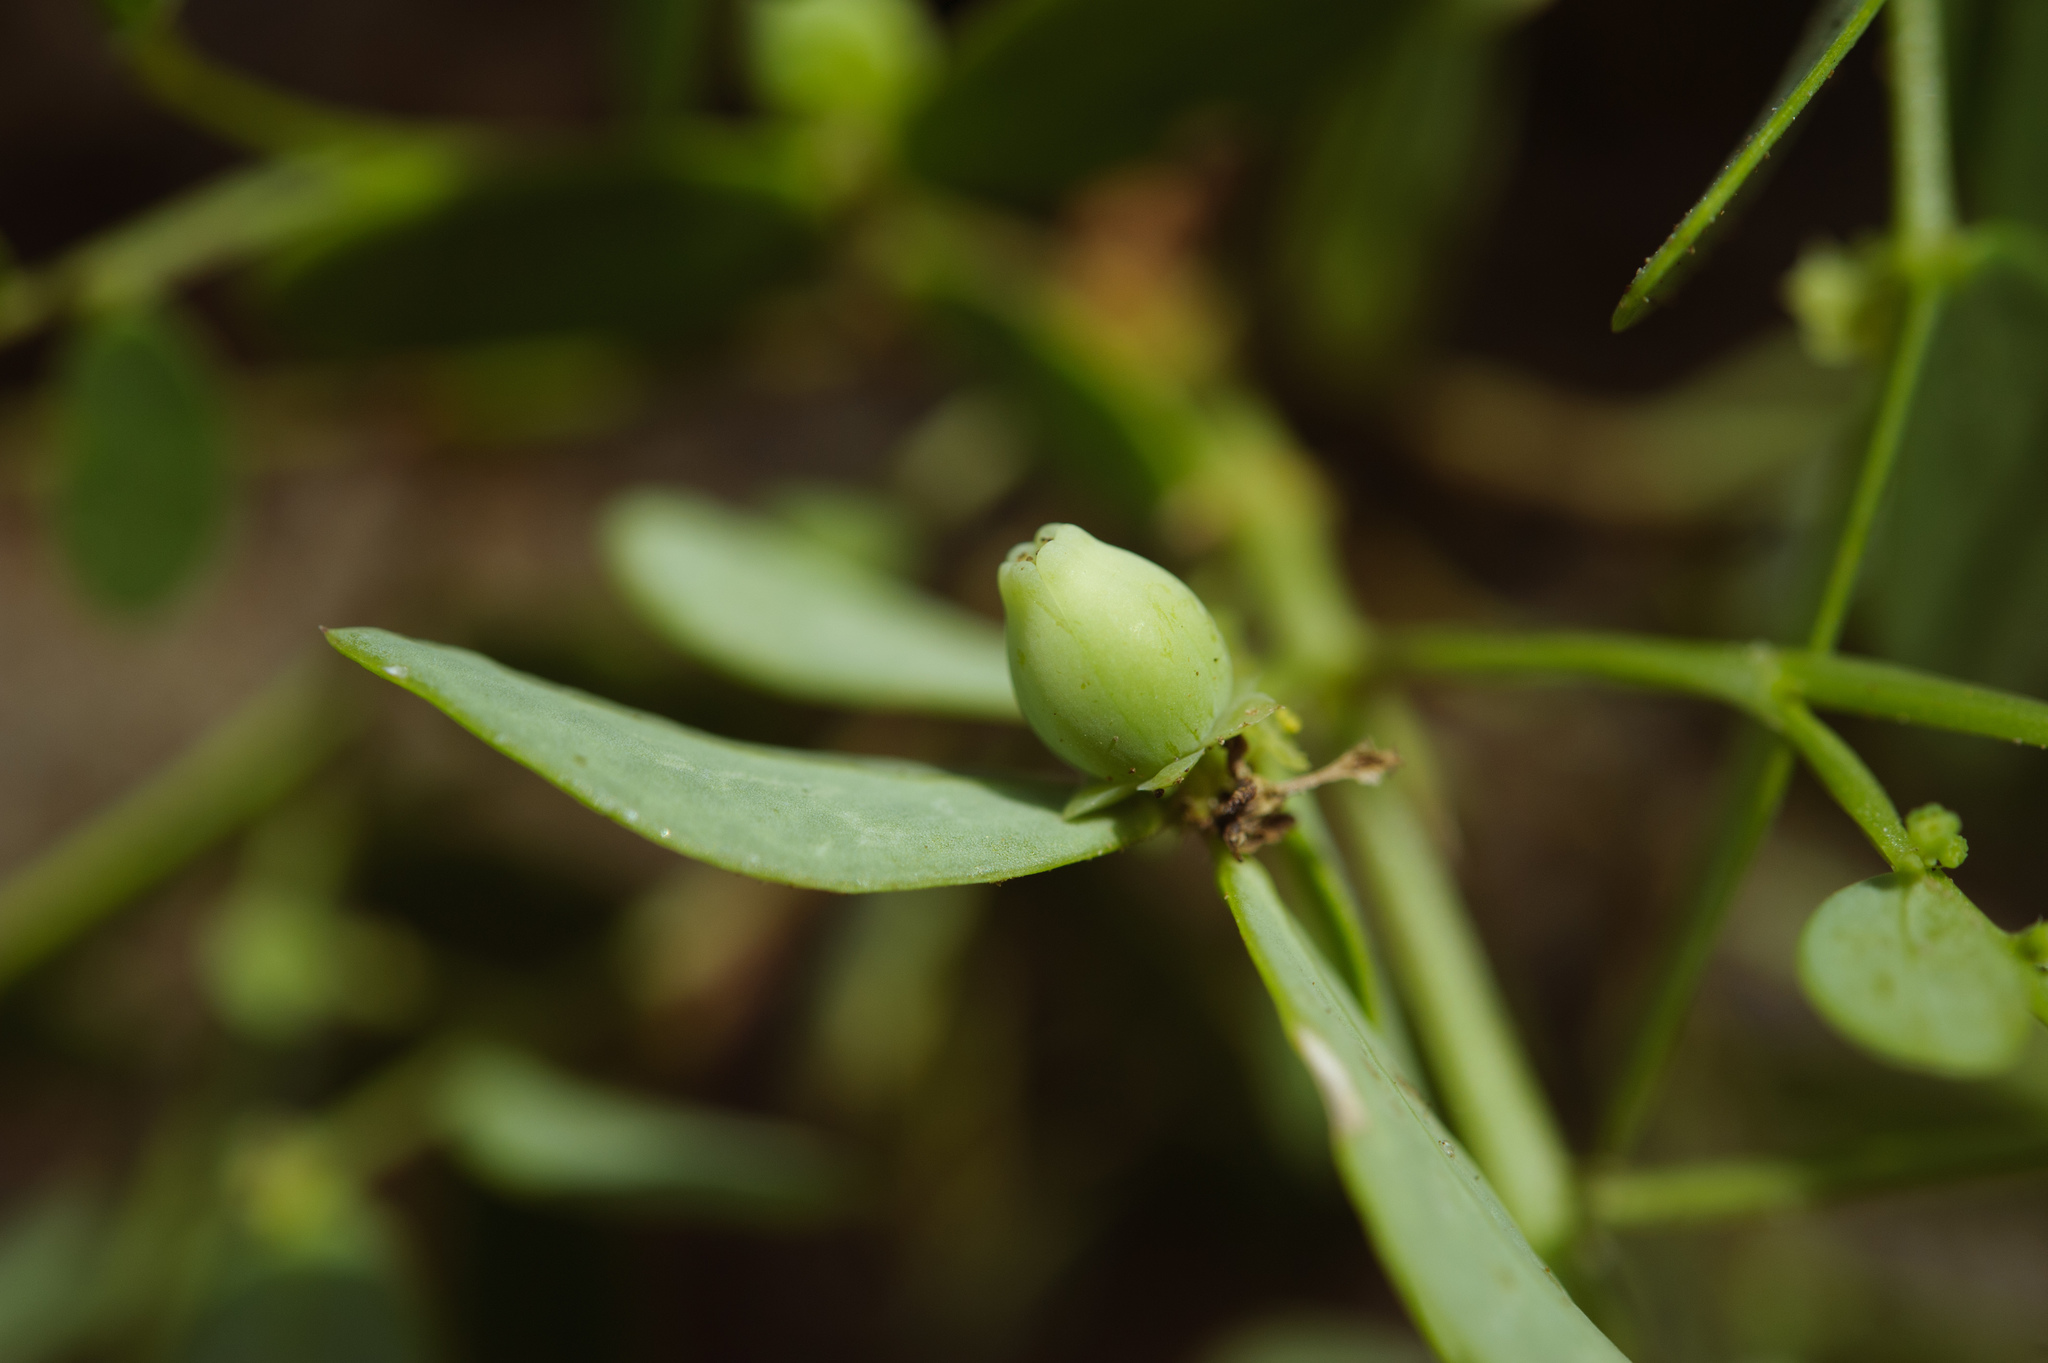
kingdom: Plantae
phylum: Tracheophyta
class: Magnoliopsida
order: Malpighiales
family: Phyllanthaceae
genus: Synostemon
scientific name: Synostemon bacciformis
